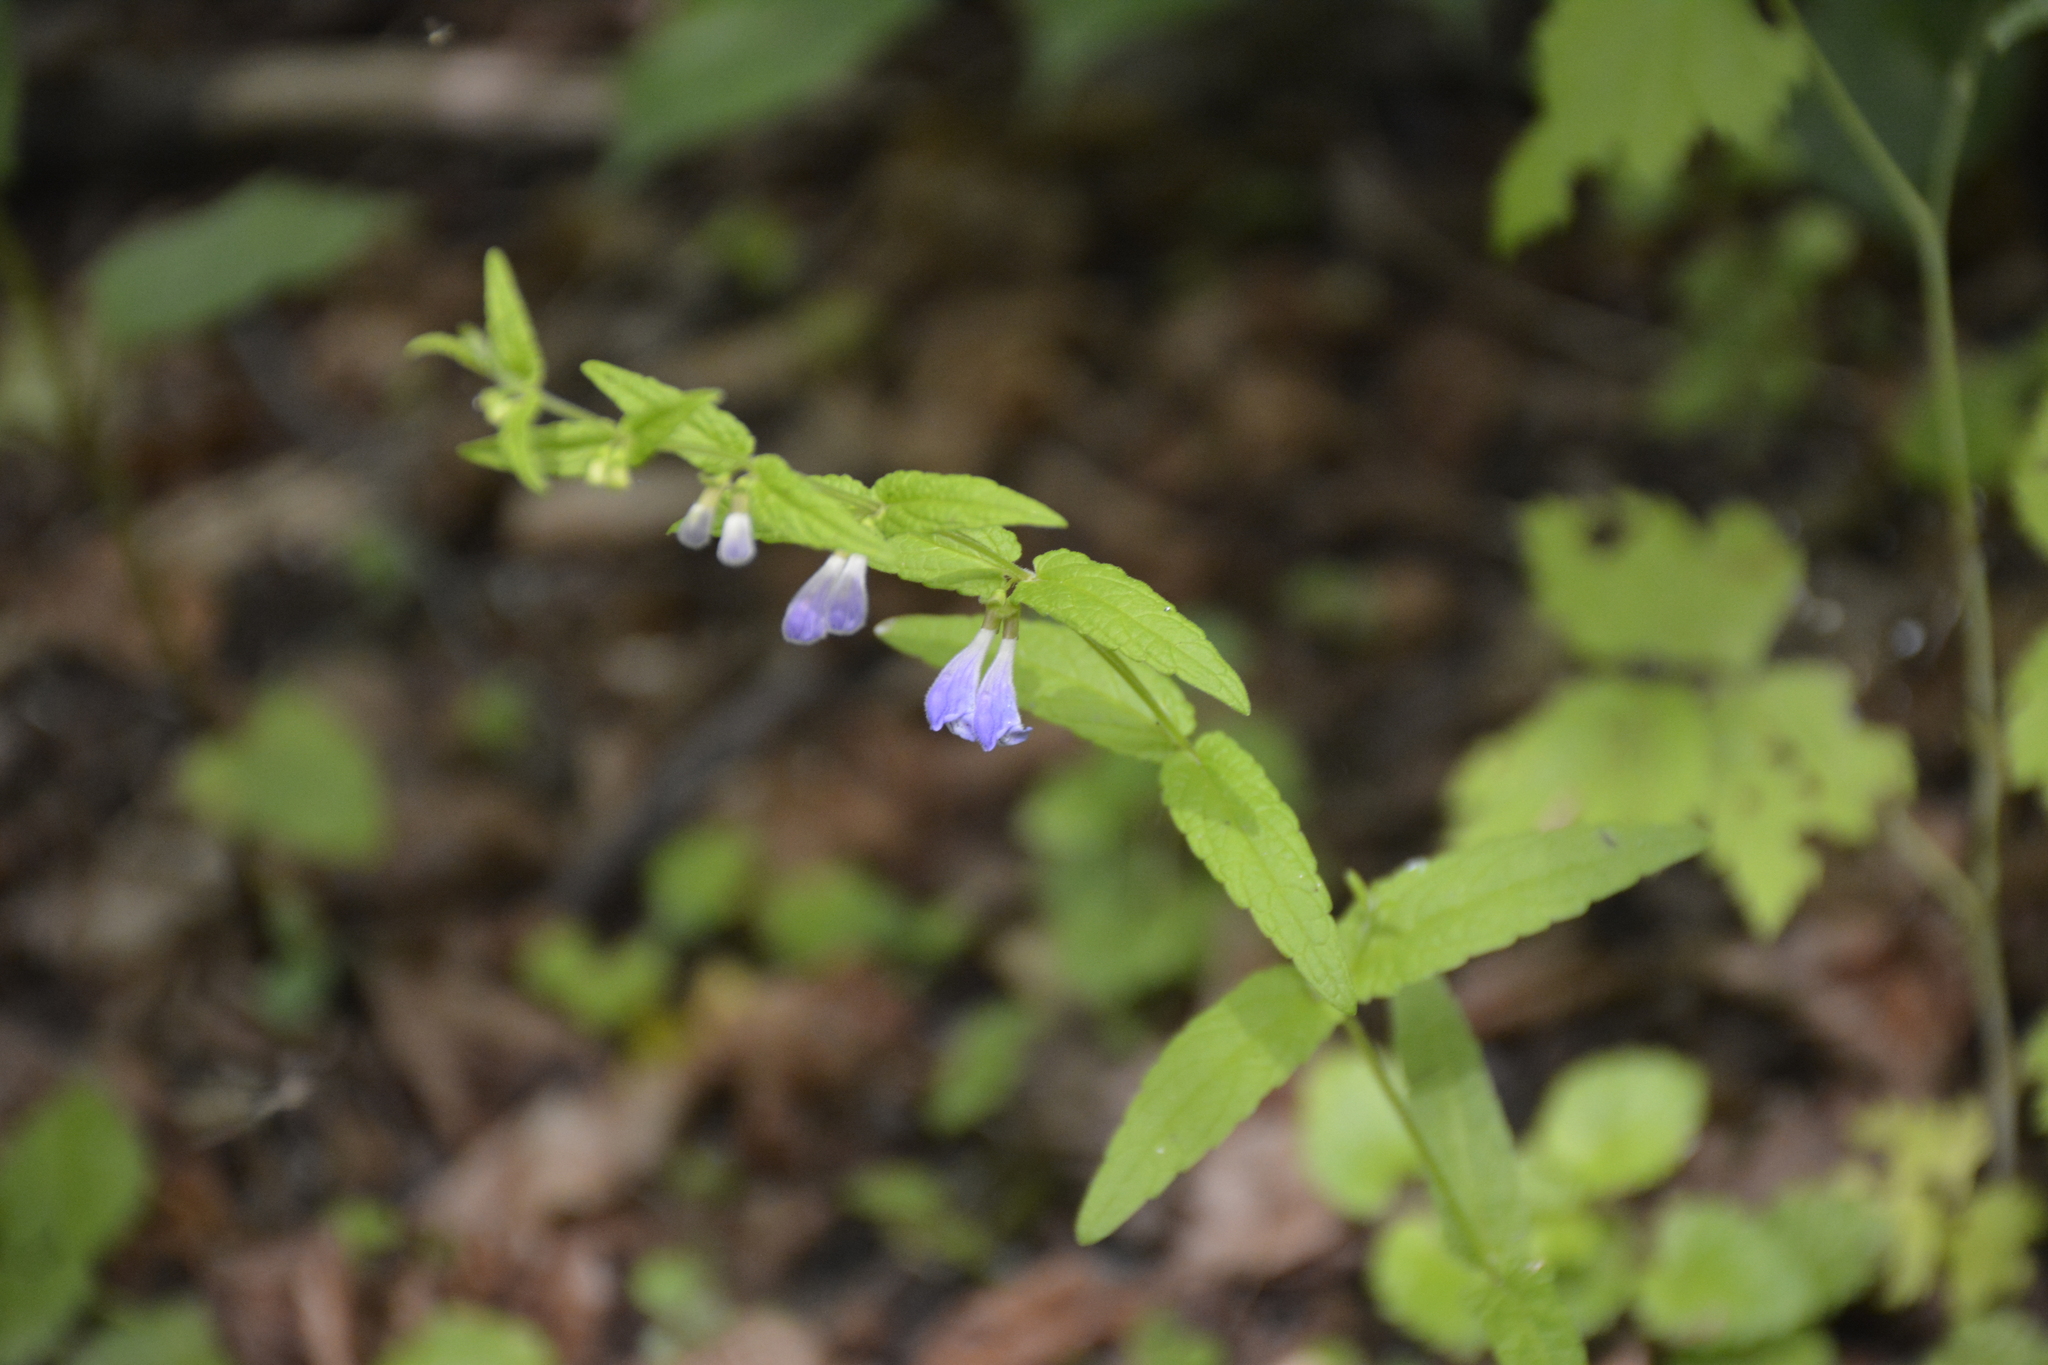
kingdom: Plantae
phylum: Tracheophyta
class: Magnoliopsida
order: Lamiales
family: Lamiaceae
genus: Scutellaria
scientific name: Scutellaria galericulata
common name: Skullcap
